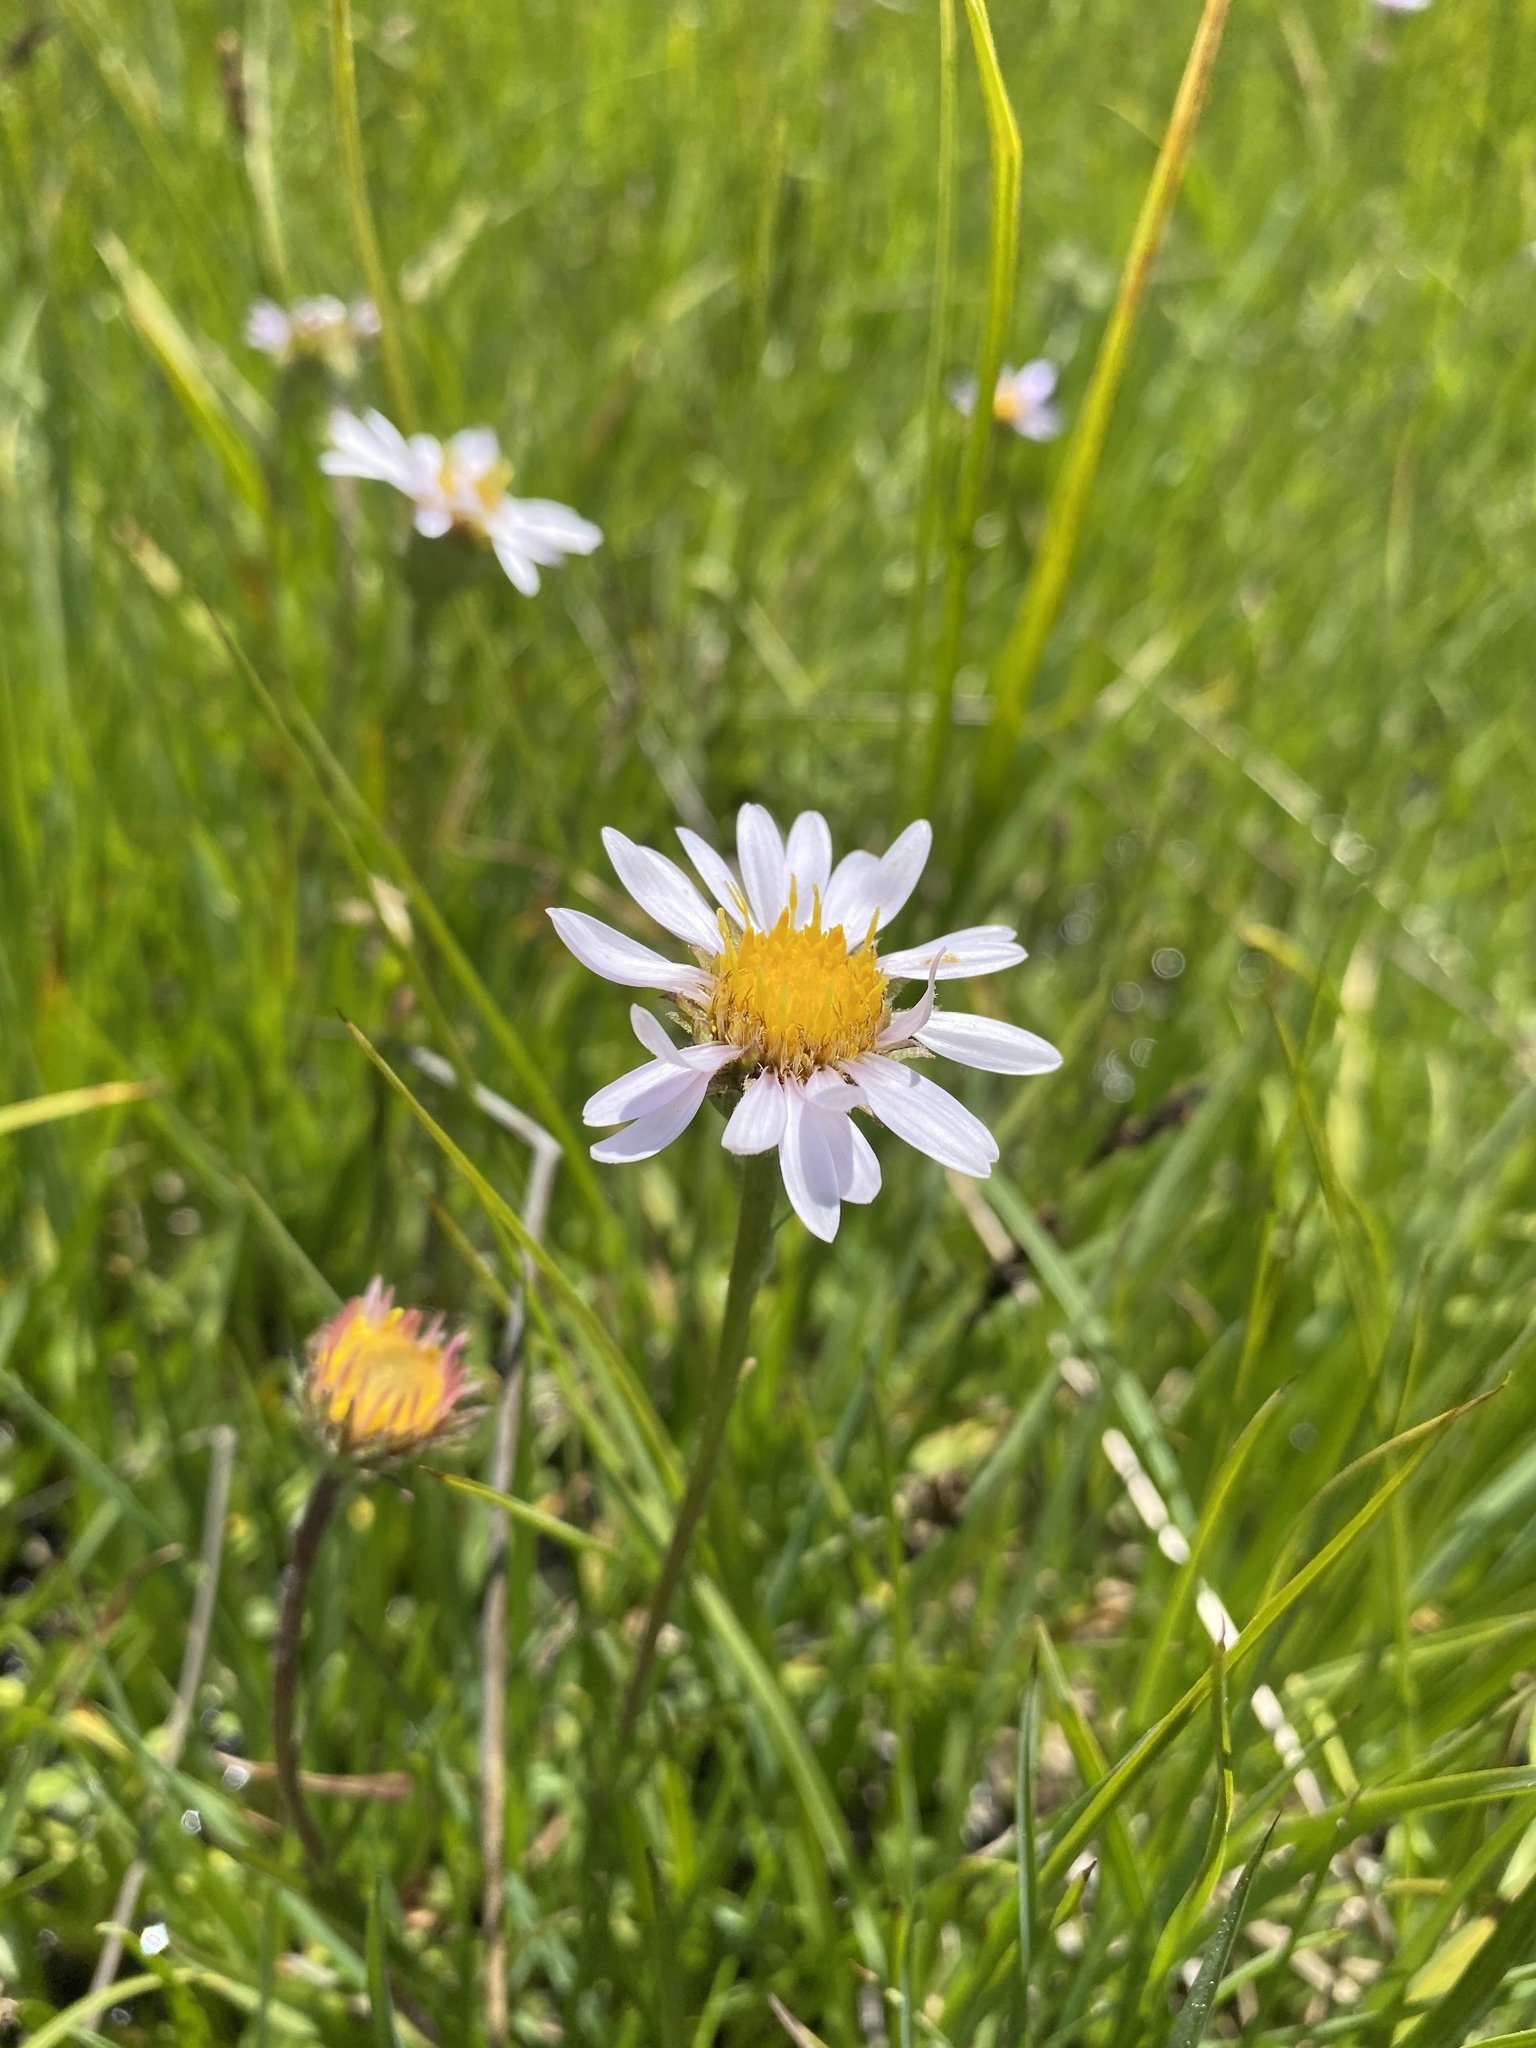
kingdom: Plantae
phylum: Tracheophyta
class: Magnoliopsida
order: Asterales
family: Asteraceae
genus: Oreostemma
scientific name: Oreostemma alpigenum
